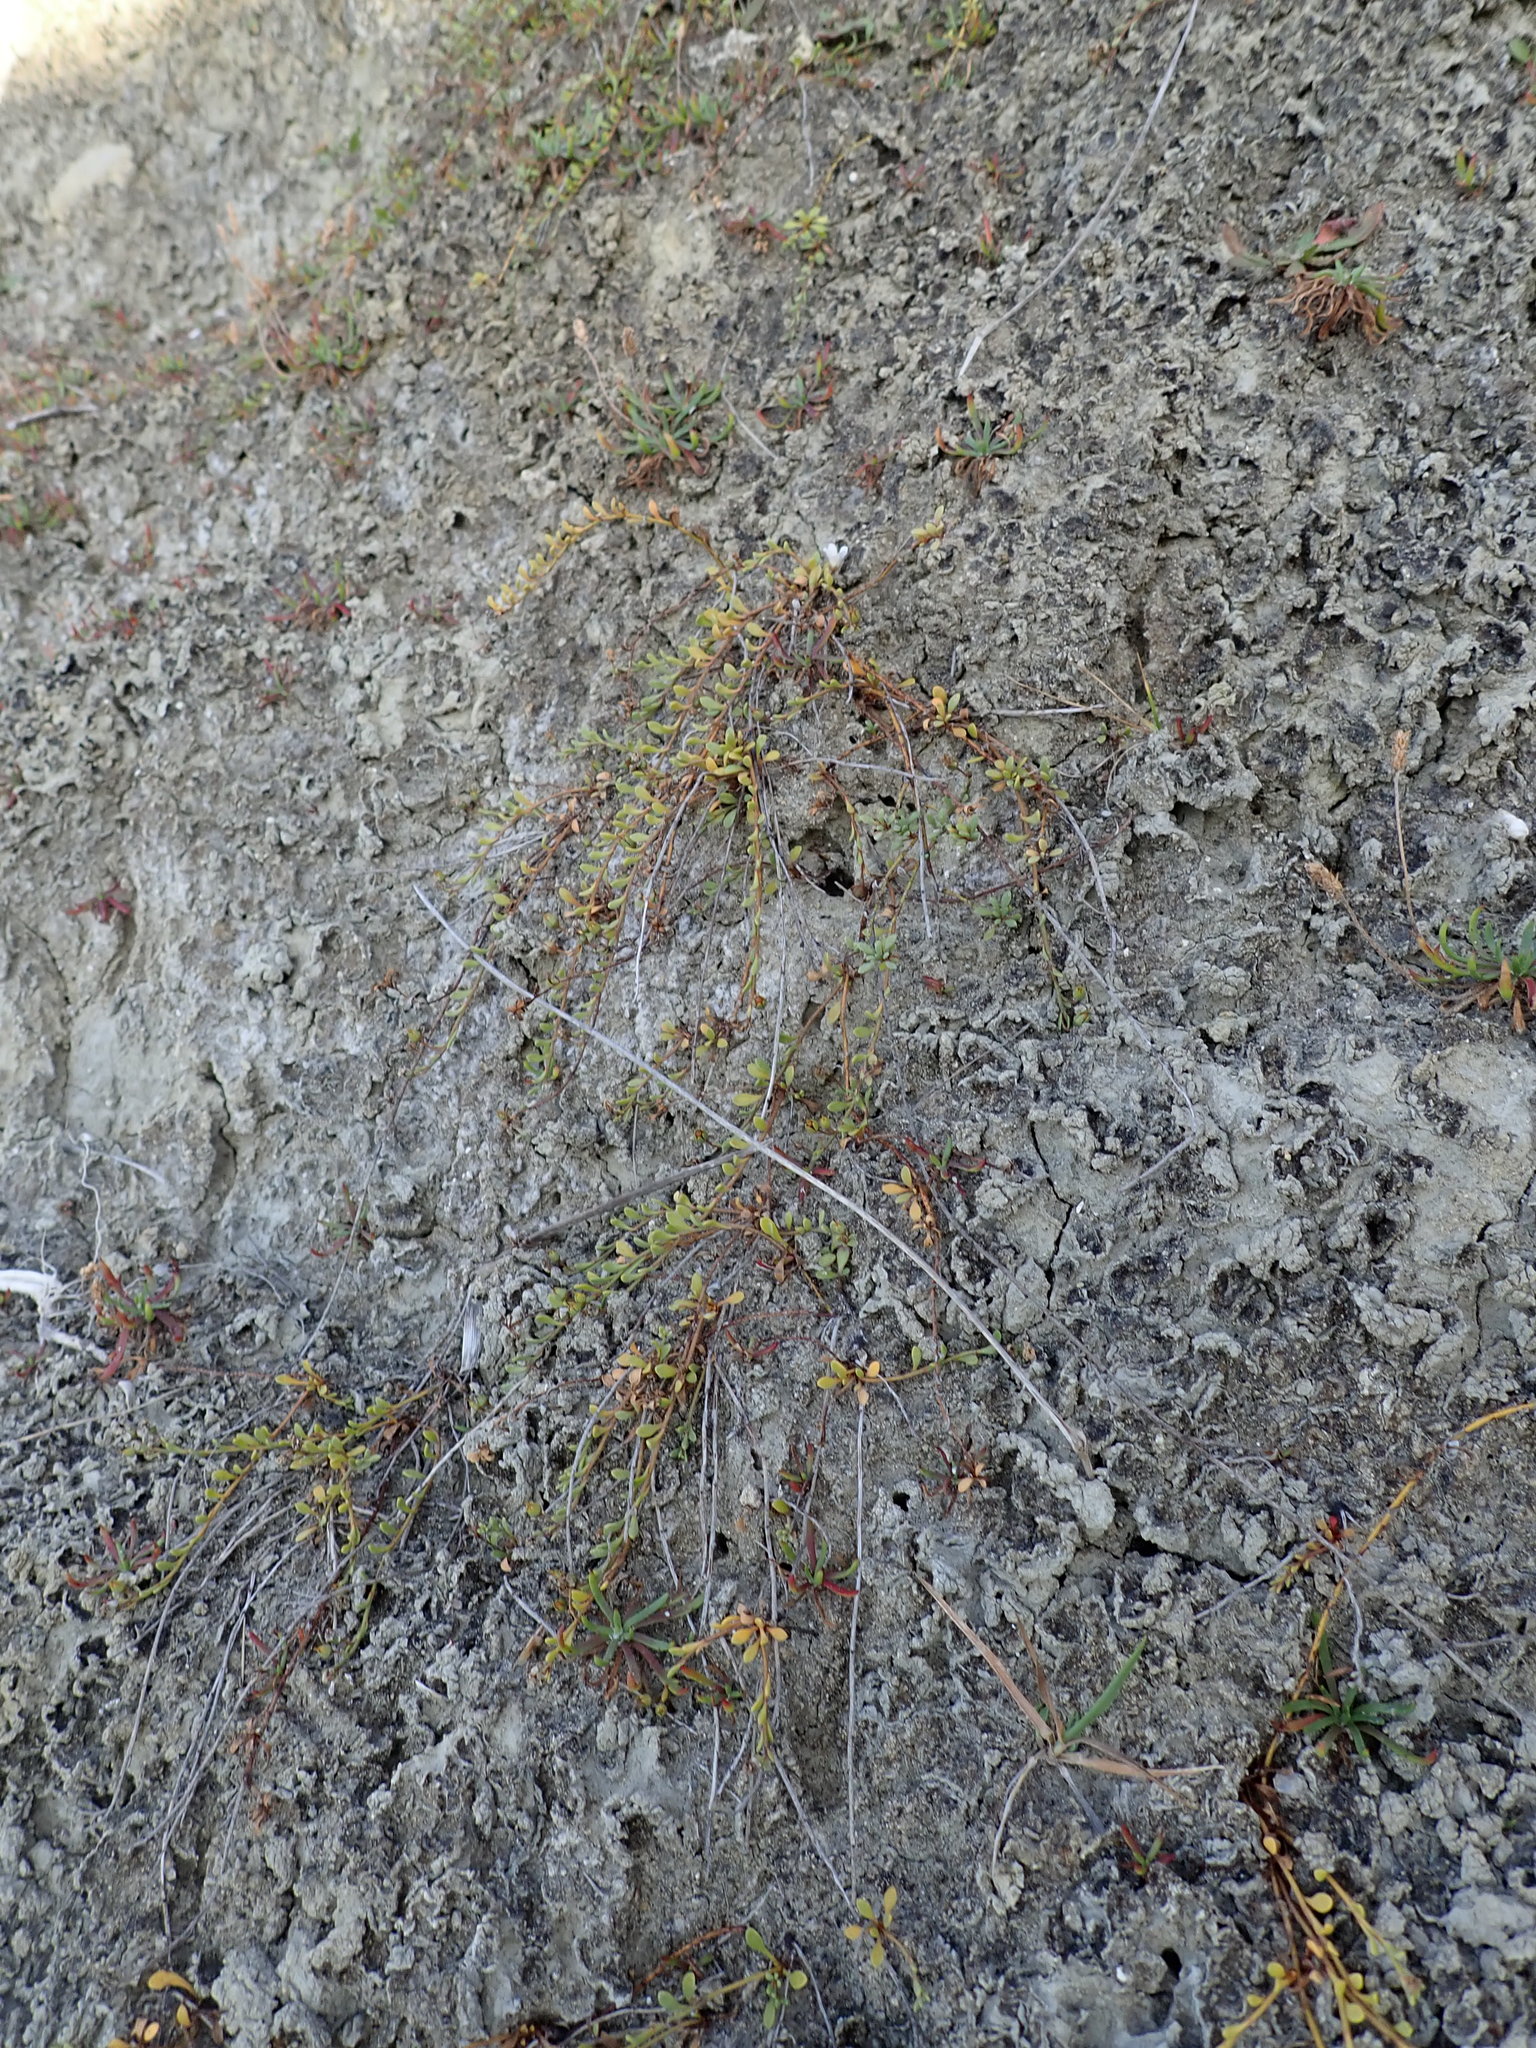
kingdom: Plantae
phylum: Tracheophyta
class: Magnoliopsida
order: Ericales
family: Primulaceae
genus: Samolus
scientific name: Samolus repens
